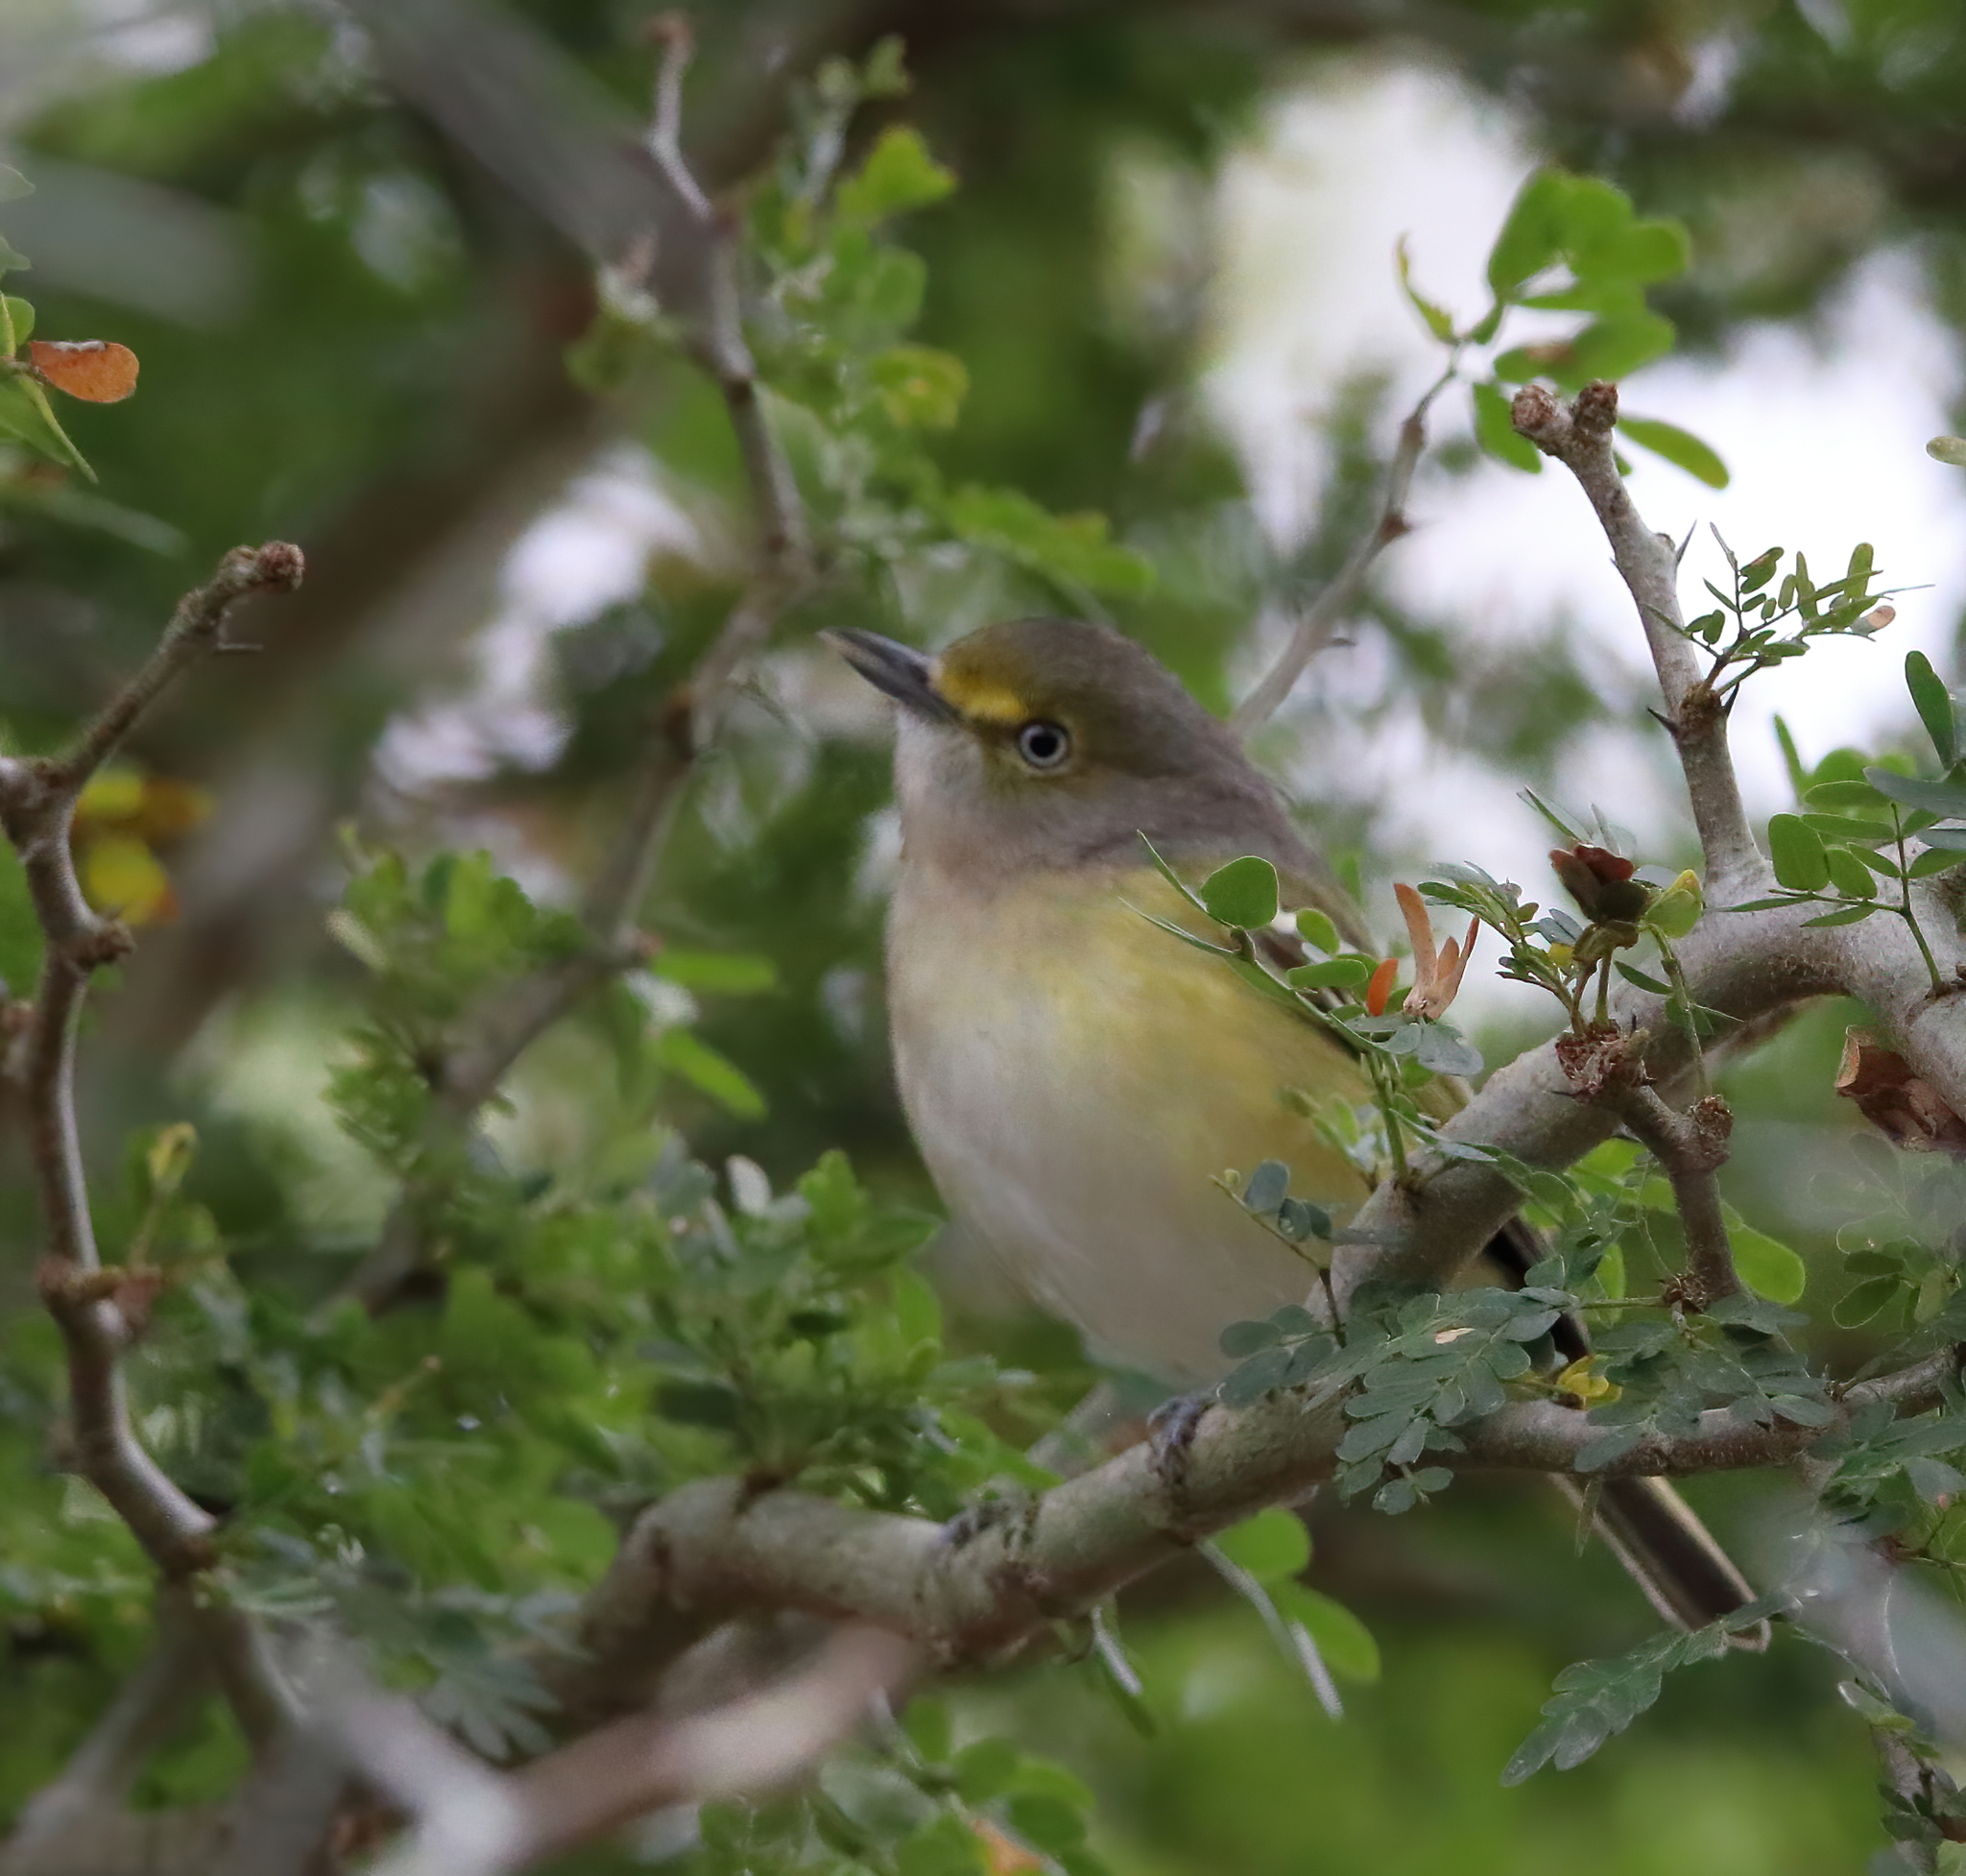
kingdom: Animalia
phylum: Chordata
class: Aves
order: Passeriformes
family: Vireonidae
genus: Vireo
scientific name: Vireo griseus
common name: White-eyed vireo
